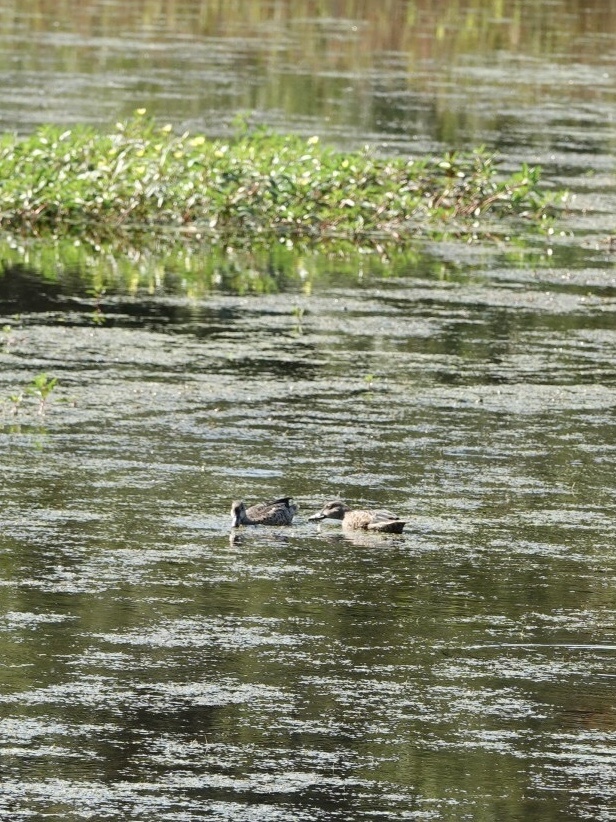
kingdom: Animalia
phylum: Chordata
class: Aves
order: Anseriformes
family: Anatidae
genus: Spatula
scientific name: Spatula discors
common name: Blue-winged teal
